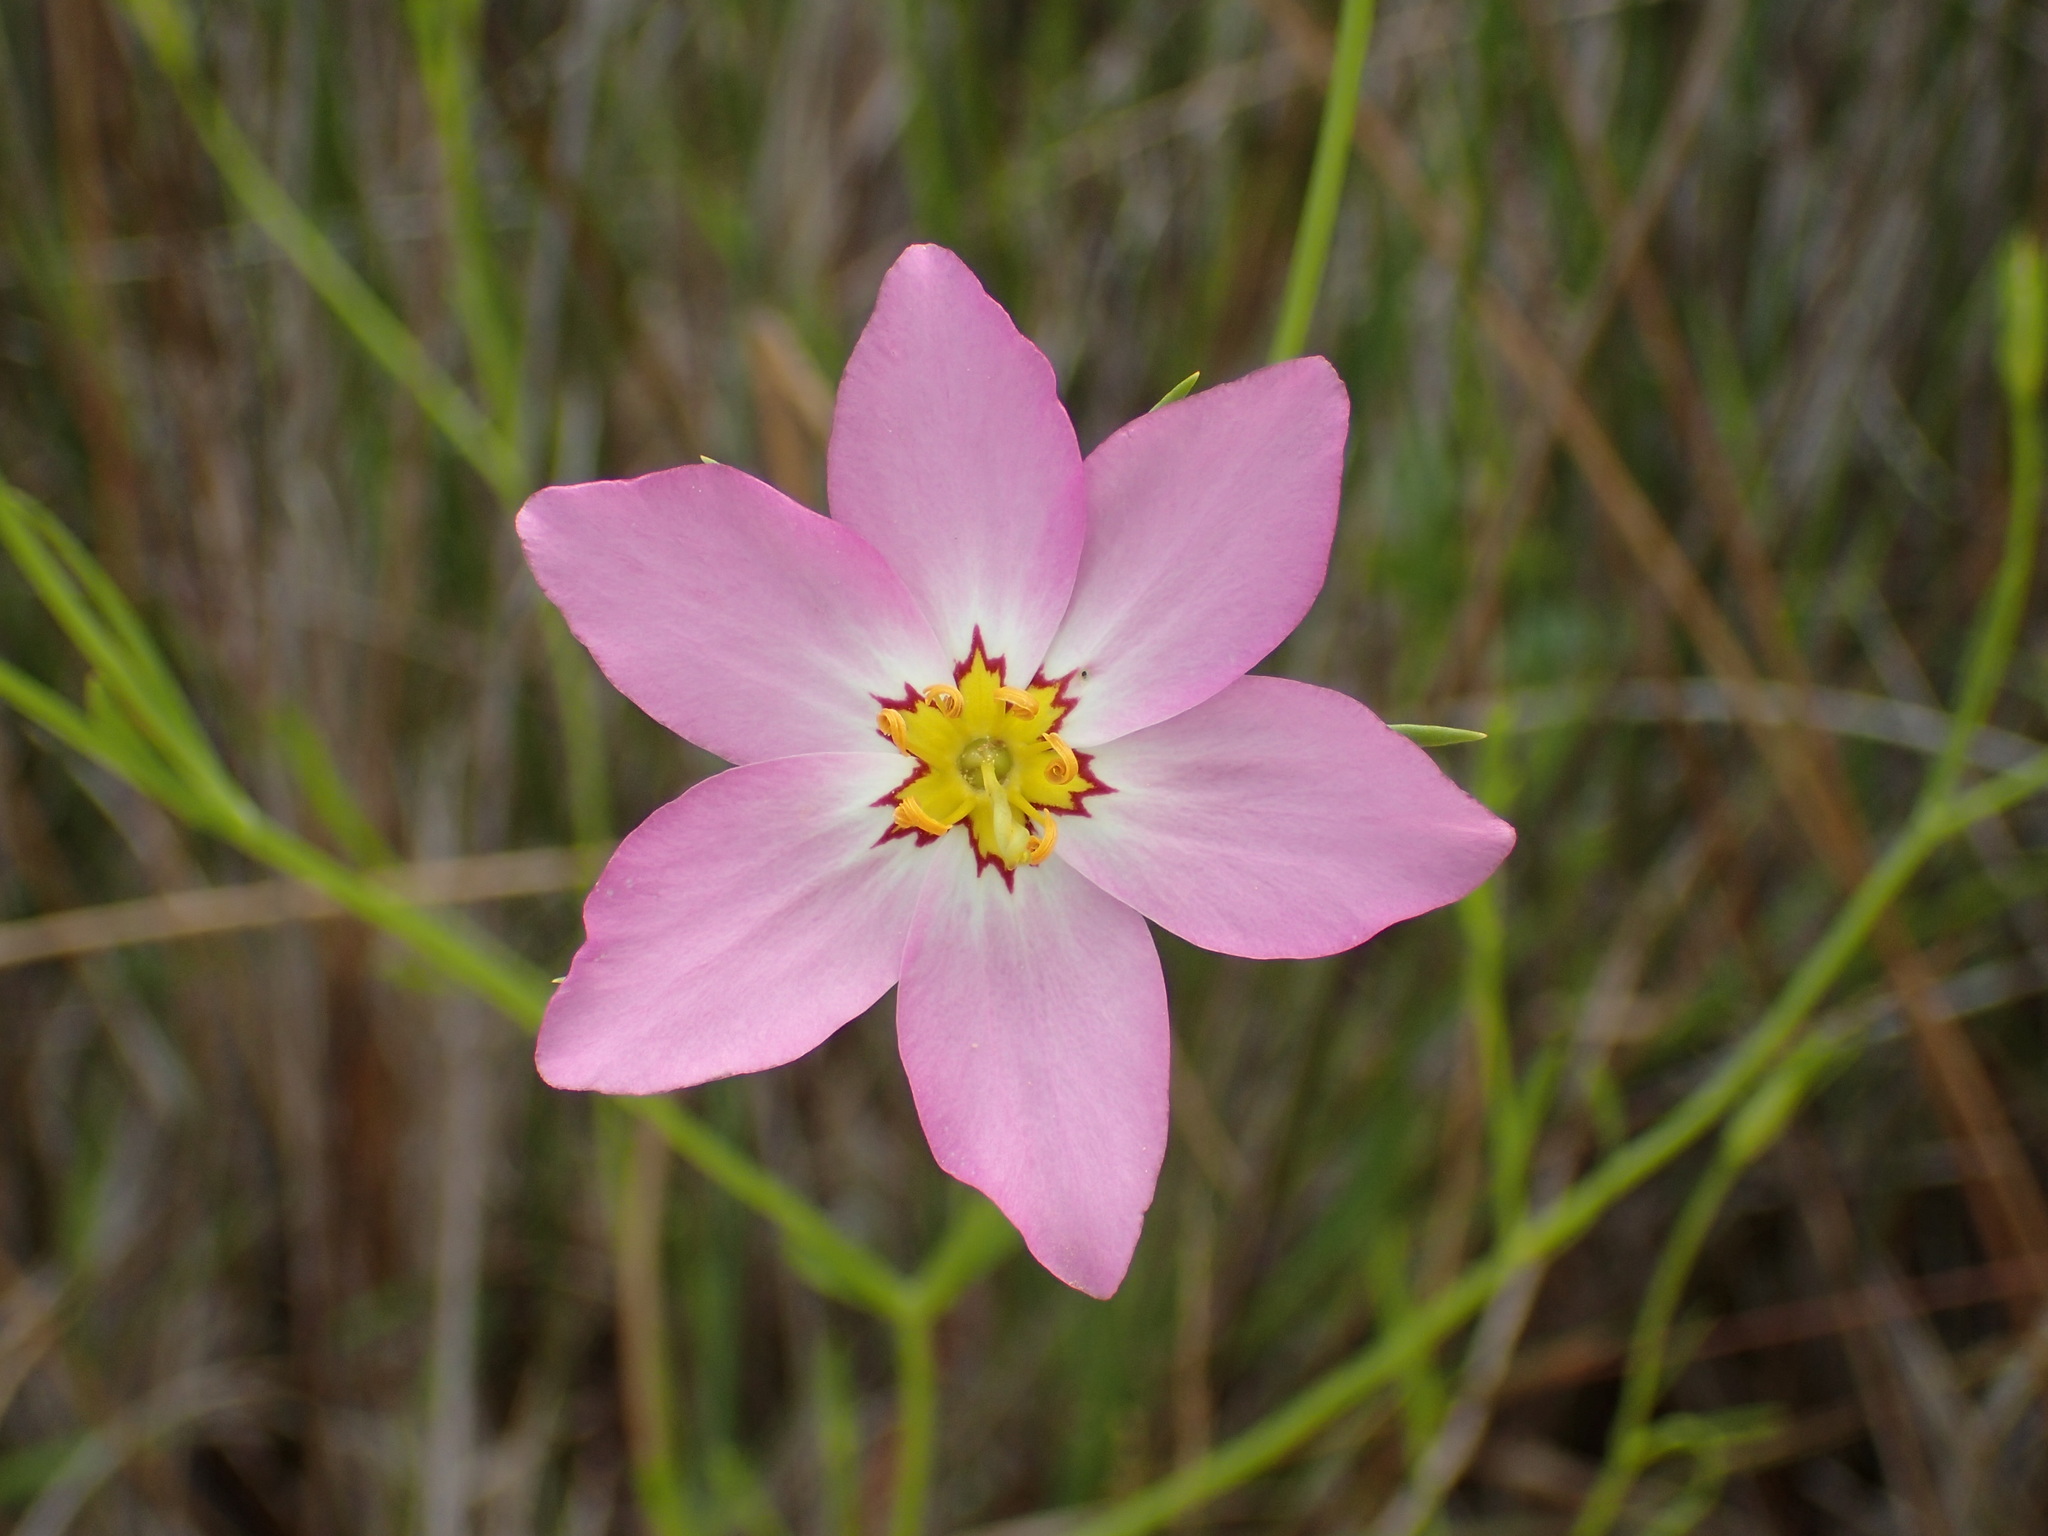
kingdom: Plantae
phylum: Tracheophyta
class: Magnoliopsida
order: Gentianales
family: Gentianaceae
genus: Sabatia
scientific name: Sabatia stellaris
